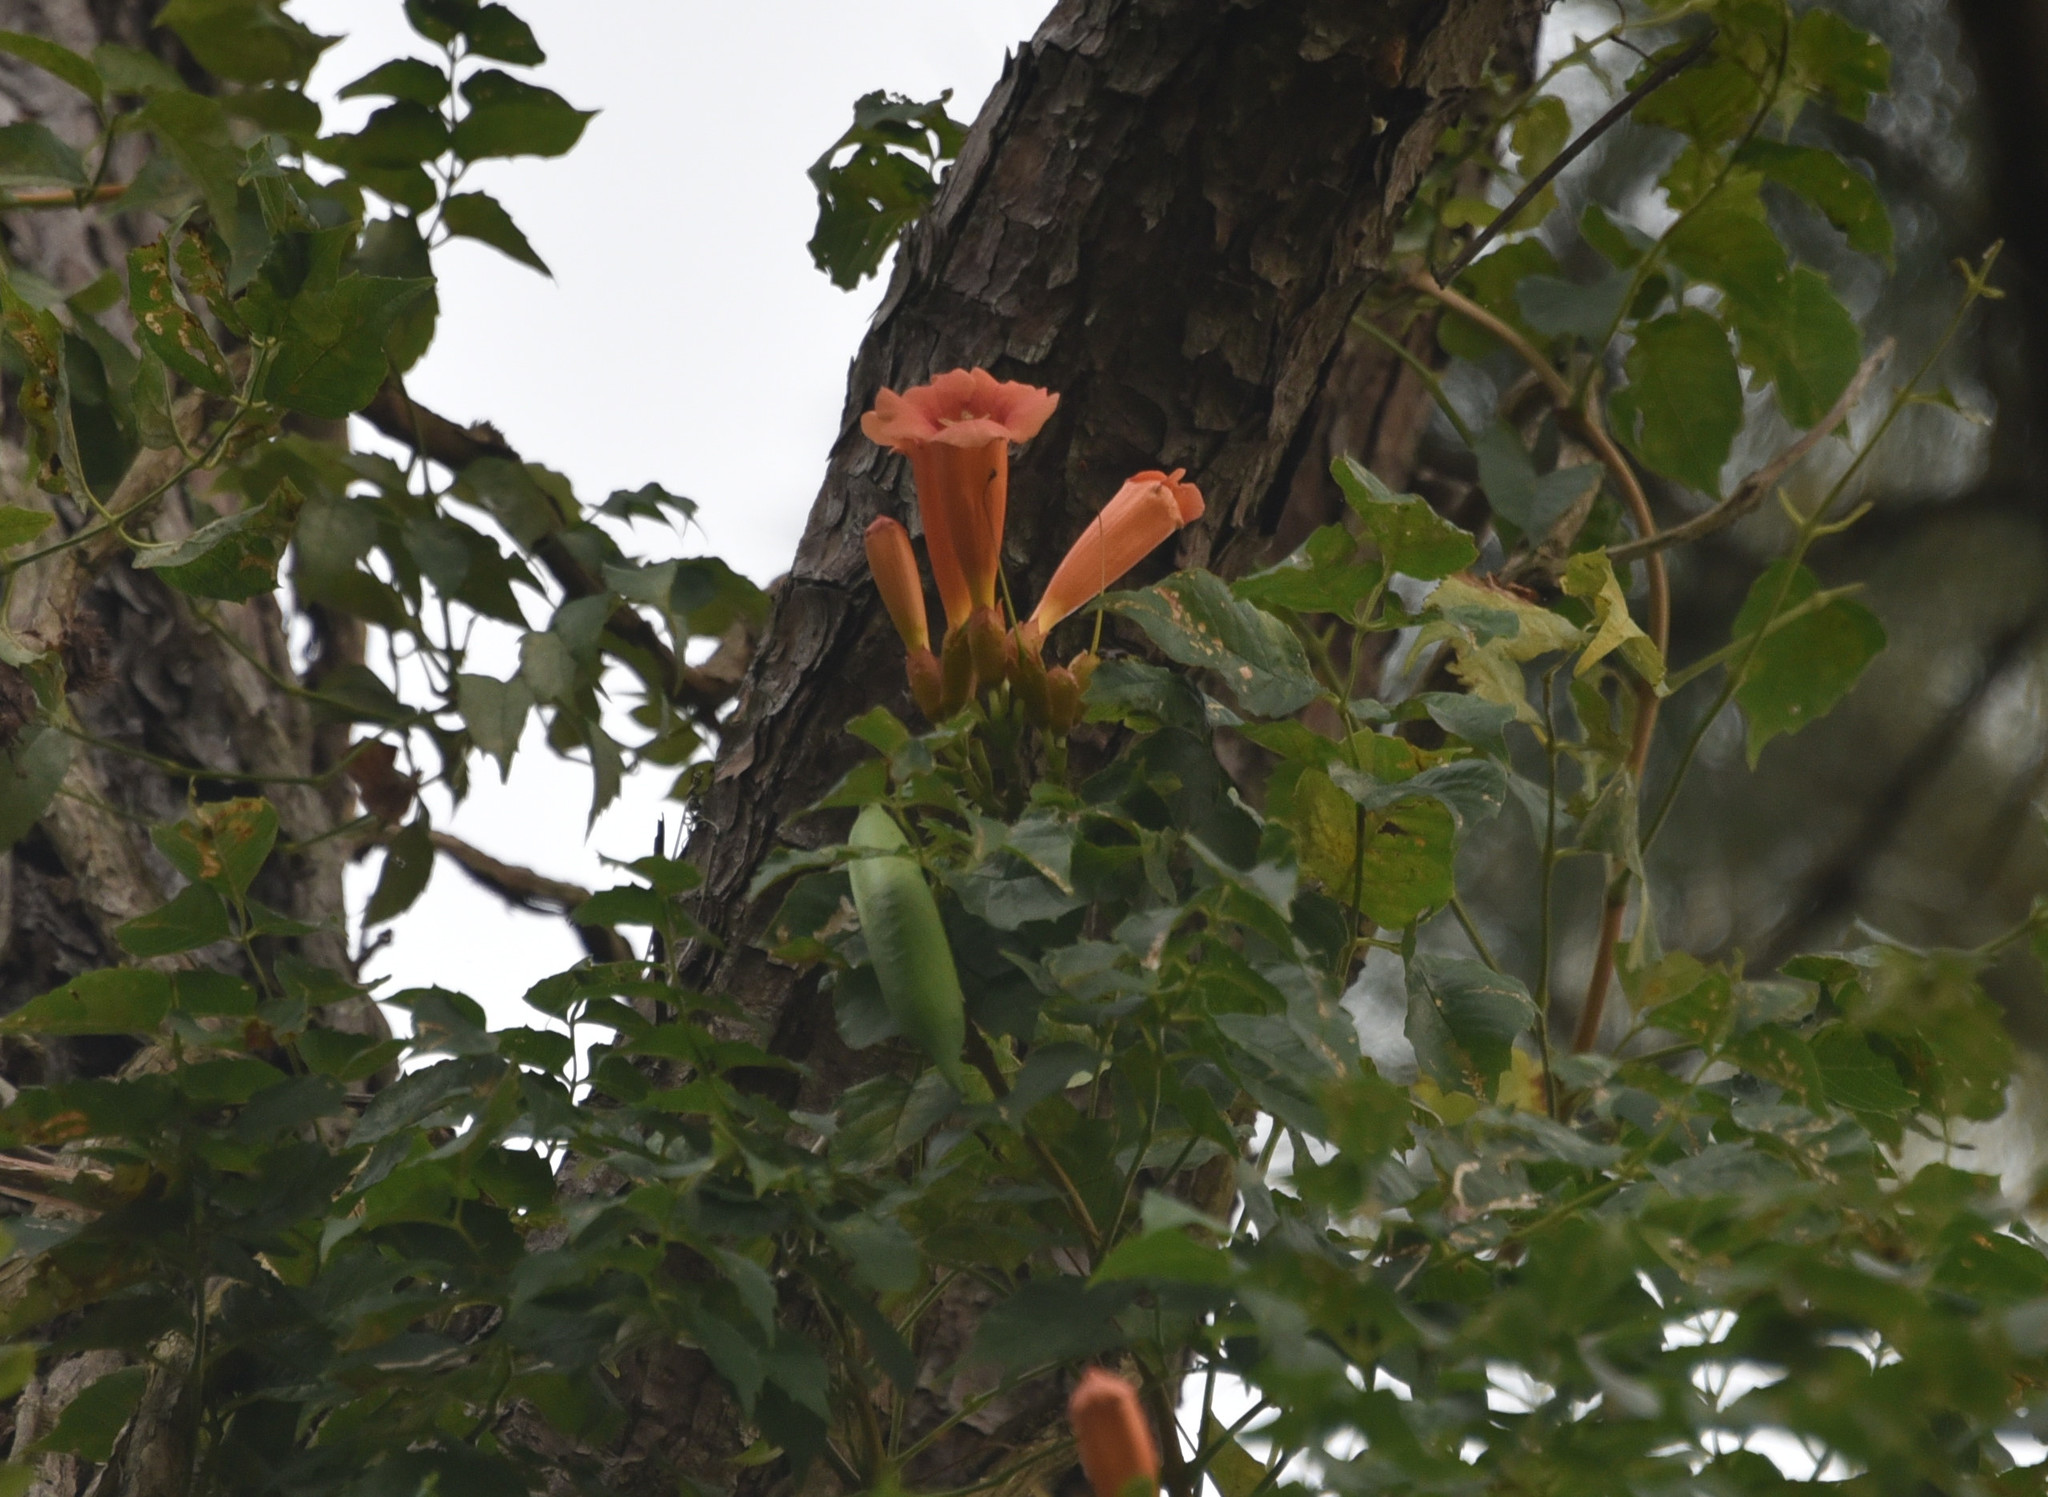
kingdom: Plantae
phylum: Tracheophyta
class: Magnoliopsida
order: Lamiales
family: Bignoniaceae
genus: Campsis
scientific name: Campsis radicans
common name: Trumpet-creeper
